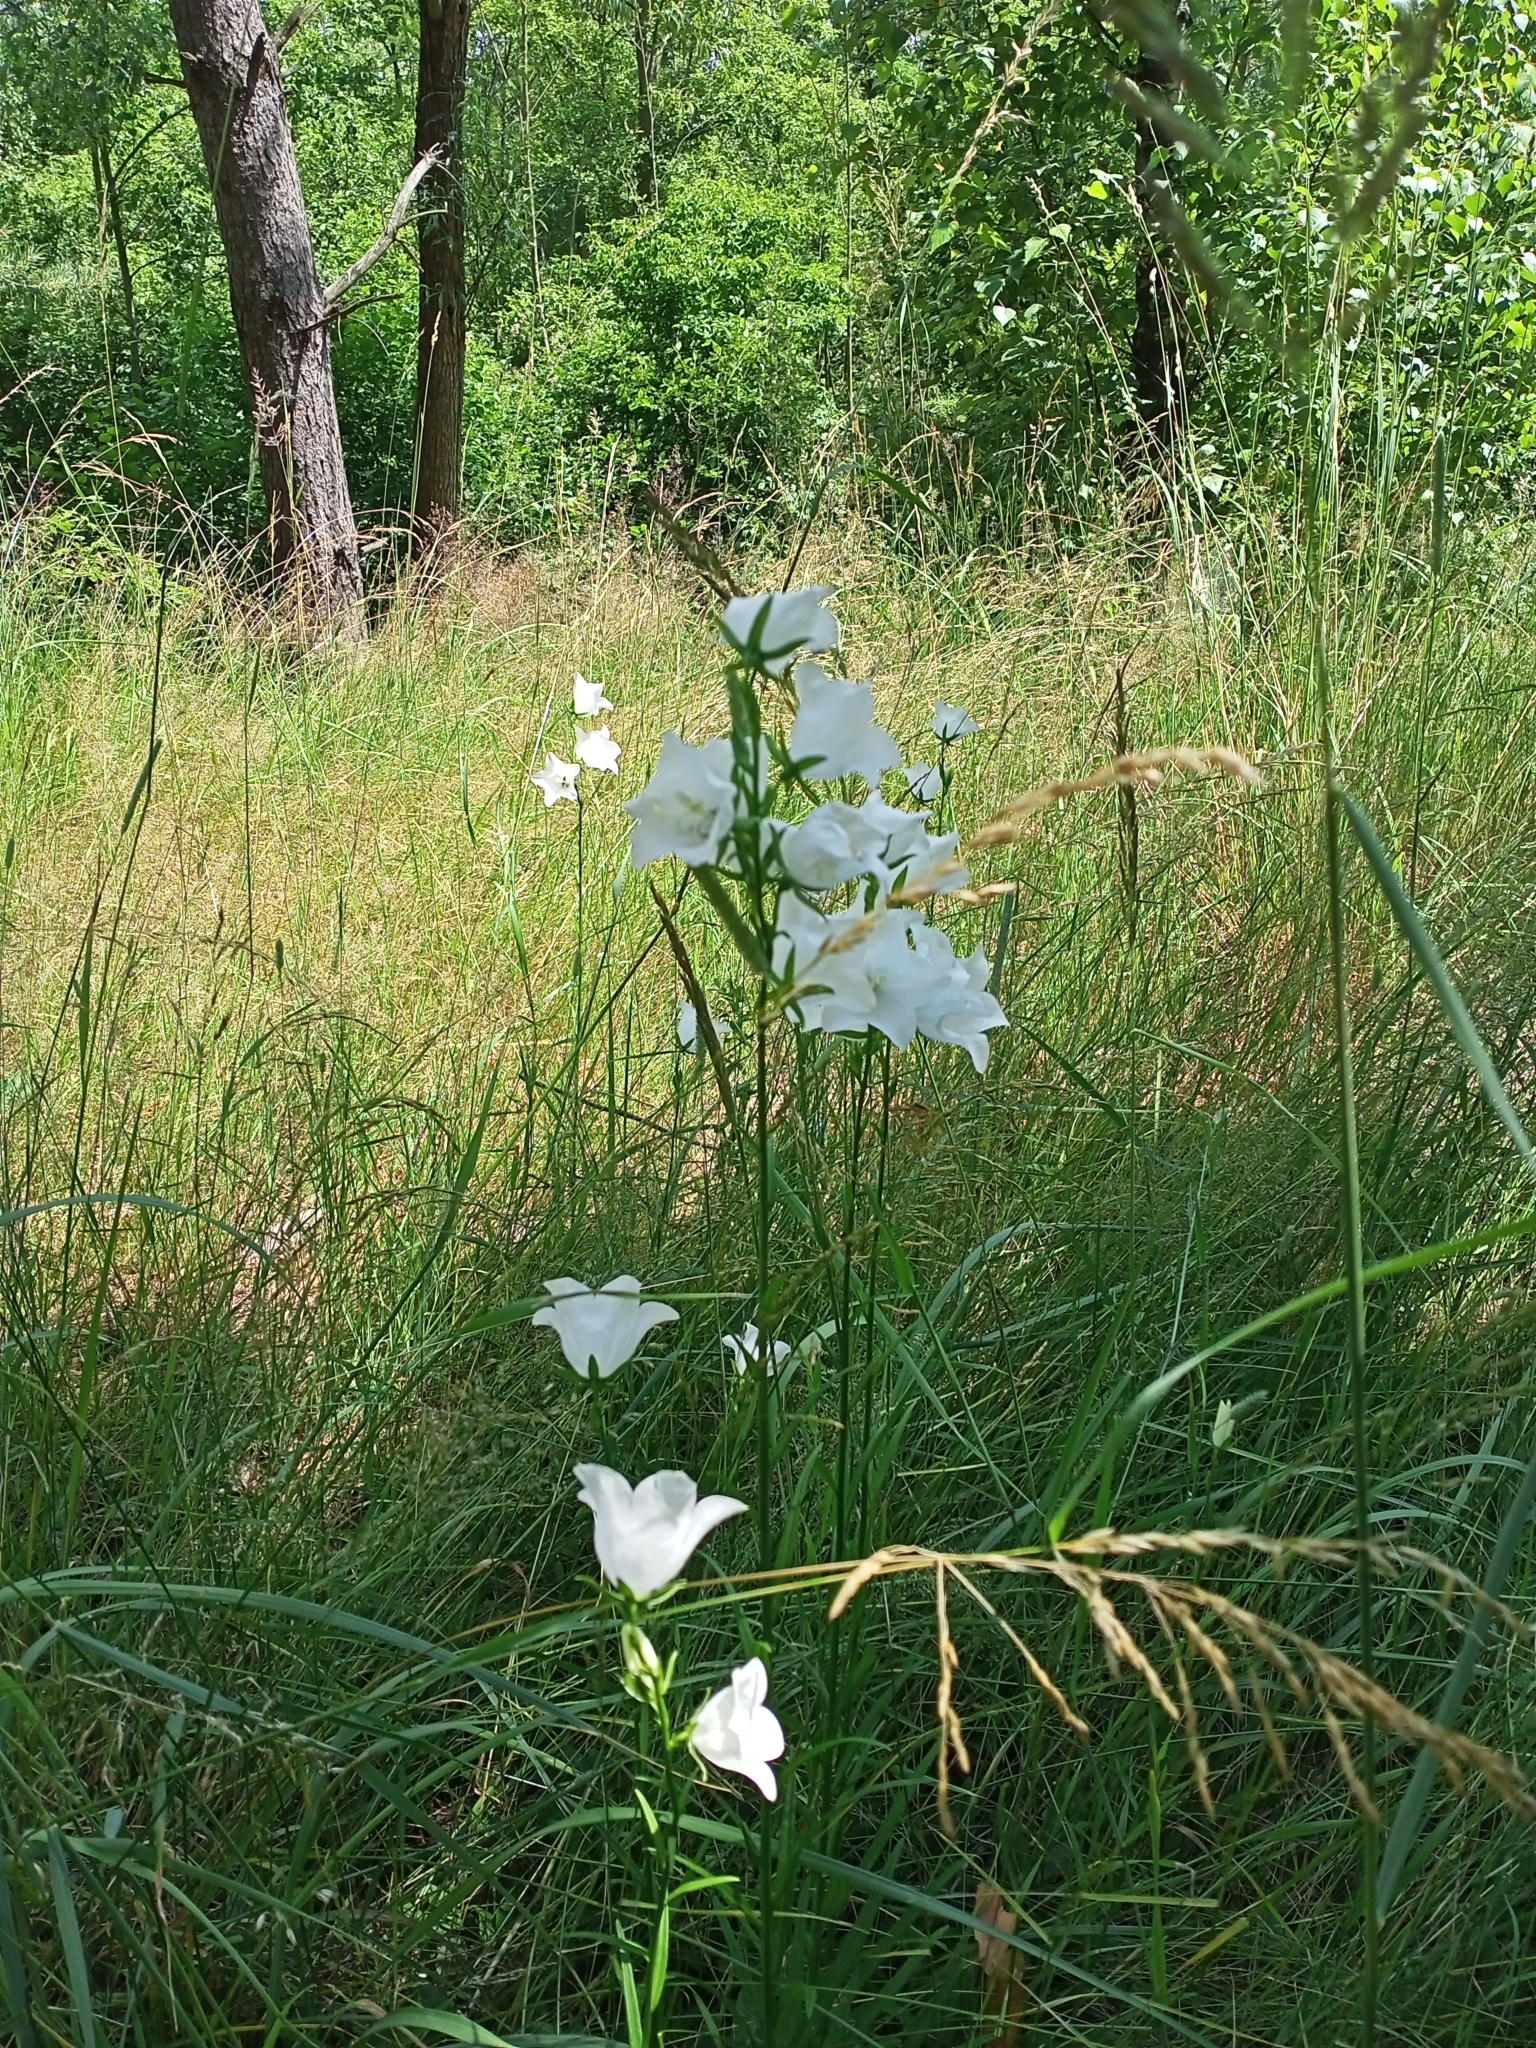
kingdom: Plantae
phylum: Tracheophyta
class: Magnoliopsida
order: Asterales
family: Campanulaceae
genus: Campanula
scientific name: Campanula persicifolia
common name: Peach-leaved bellflower
